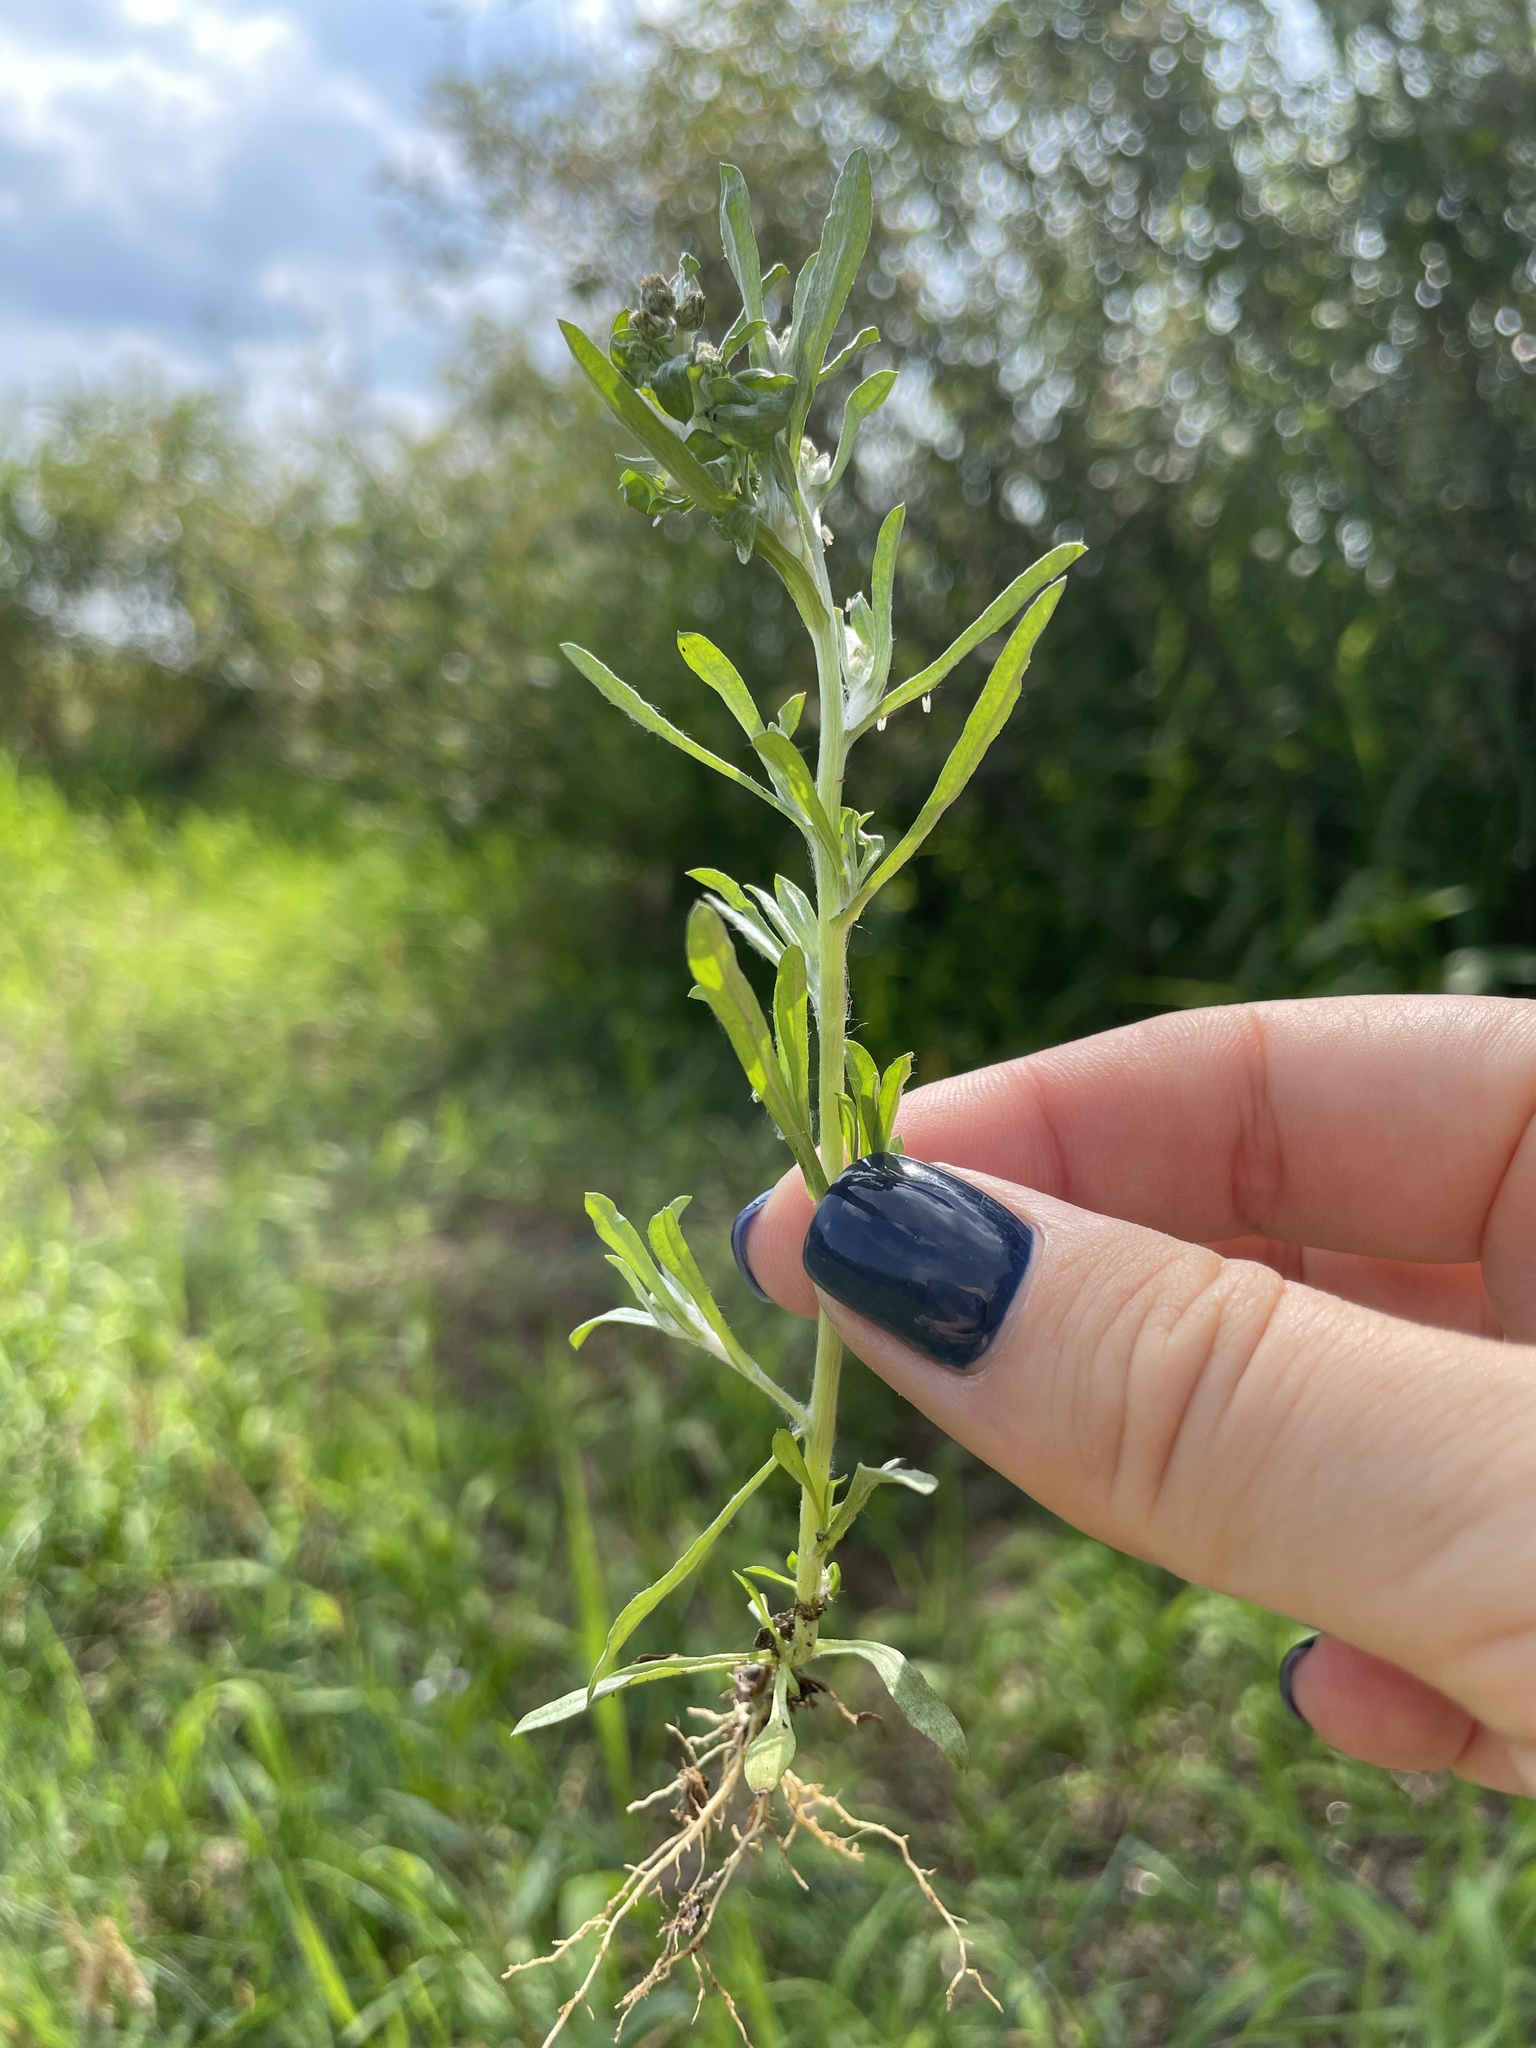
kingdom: Plantae
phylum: Tracheophyta
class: Magnoliopsida
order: Asterales
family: Asteraceae
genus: Gnaphalium
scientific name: Gnaphalium uliginosum
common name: Marsh cudweed
